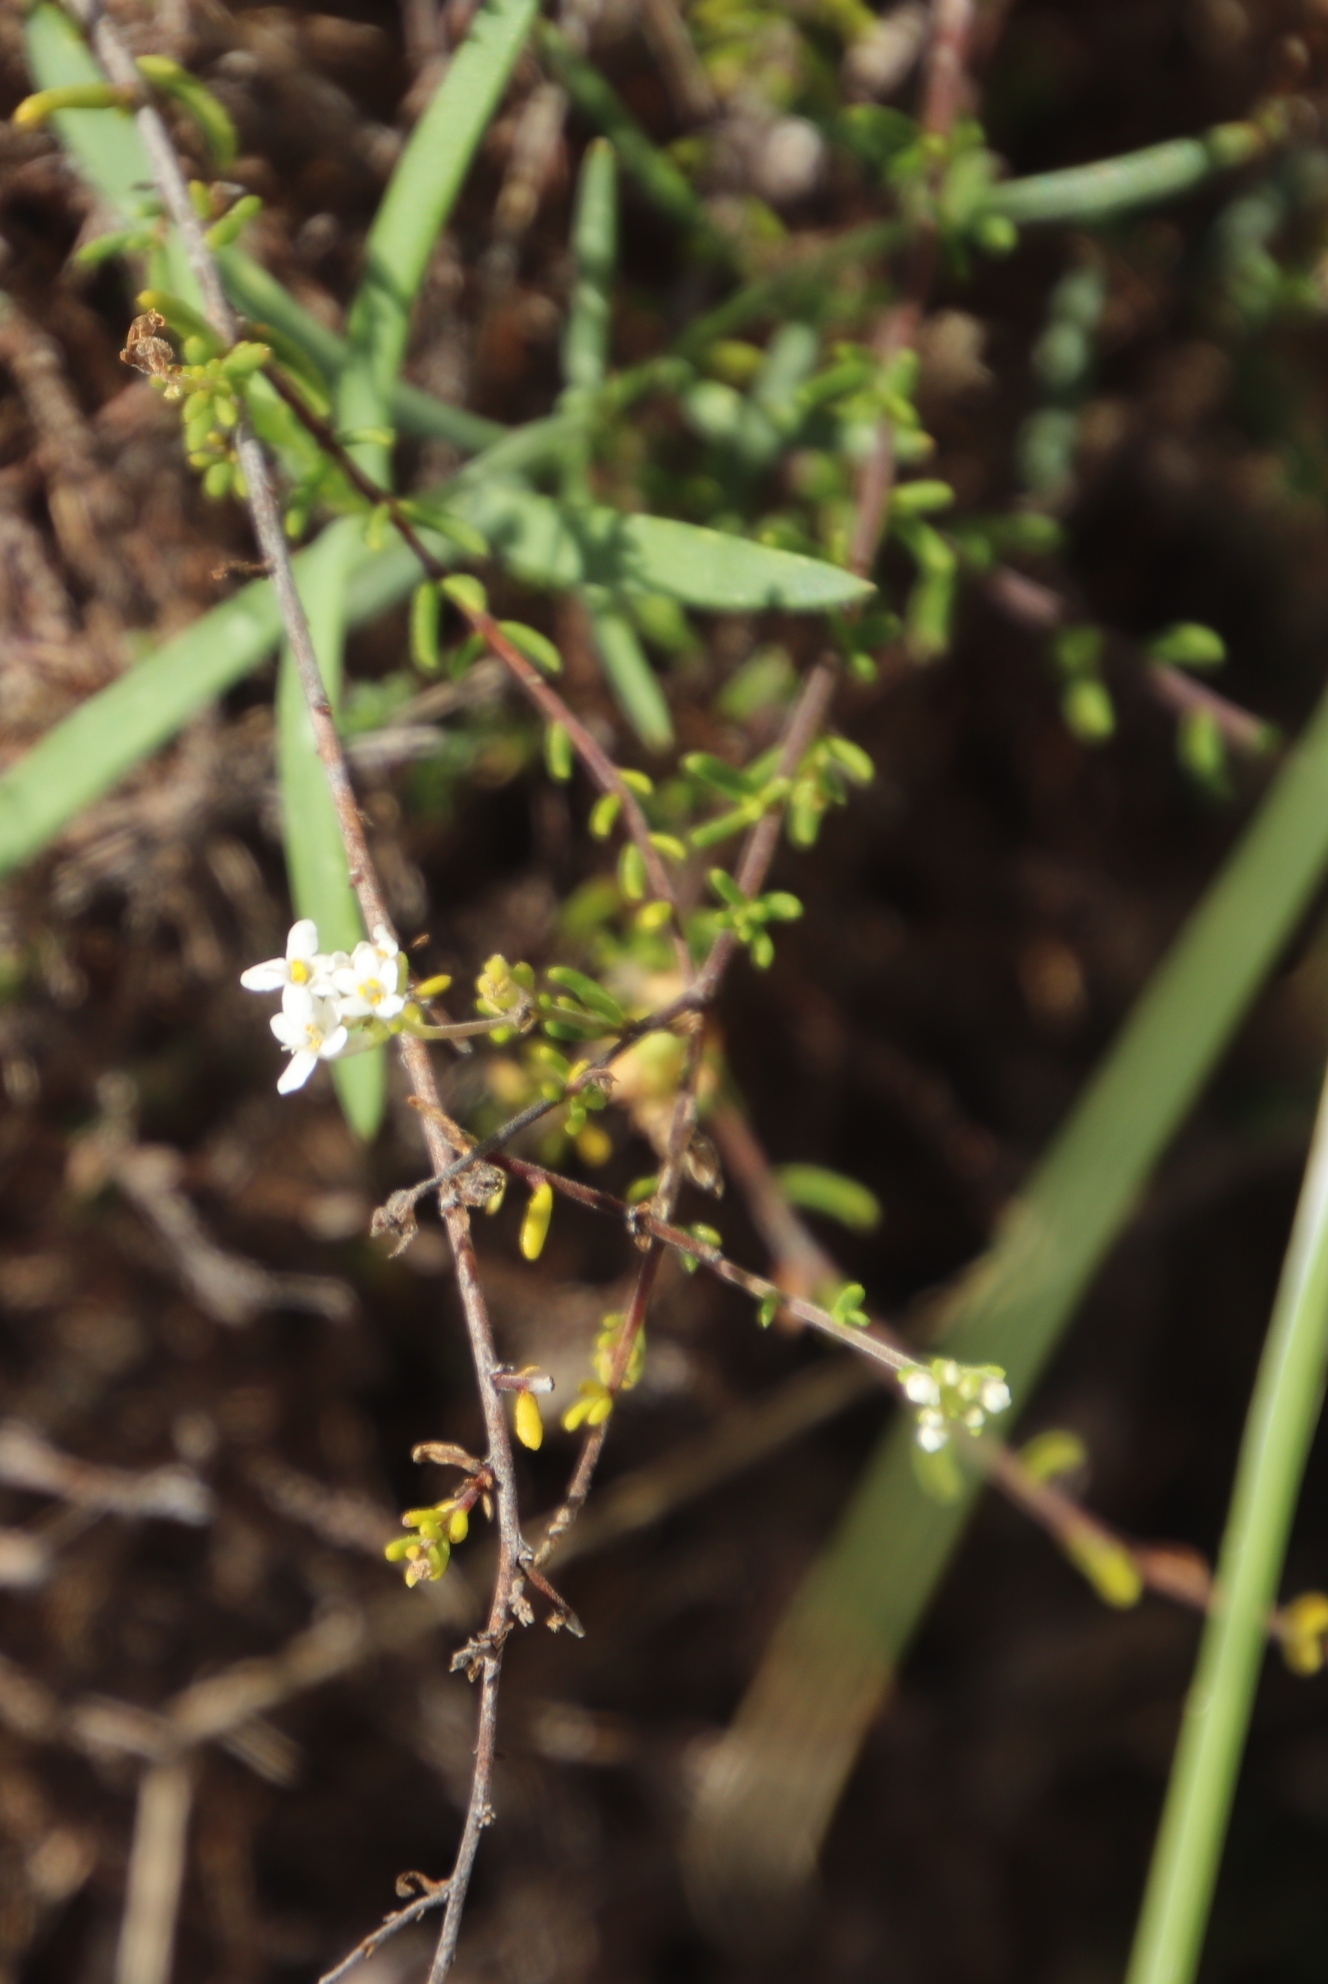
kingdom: Plantae
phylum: Tracheophyta
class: Magnoliopsida
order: Lamiales
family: Scrophulariaceae
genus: Selago
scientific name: Selago levynsiae
